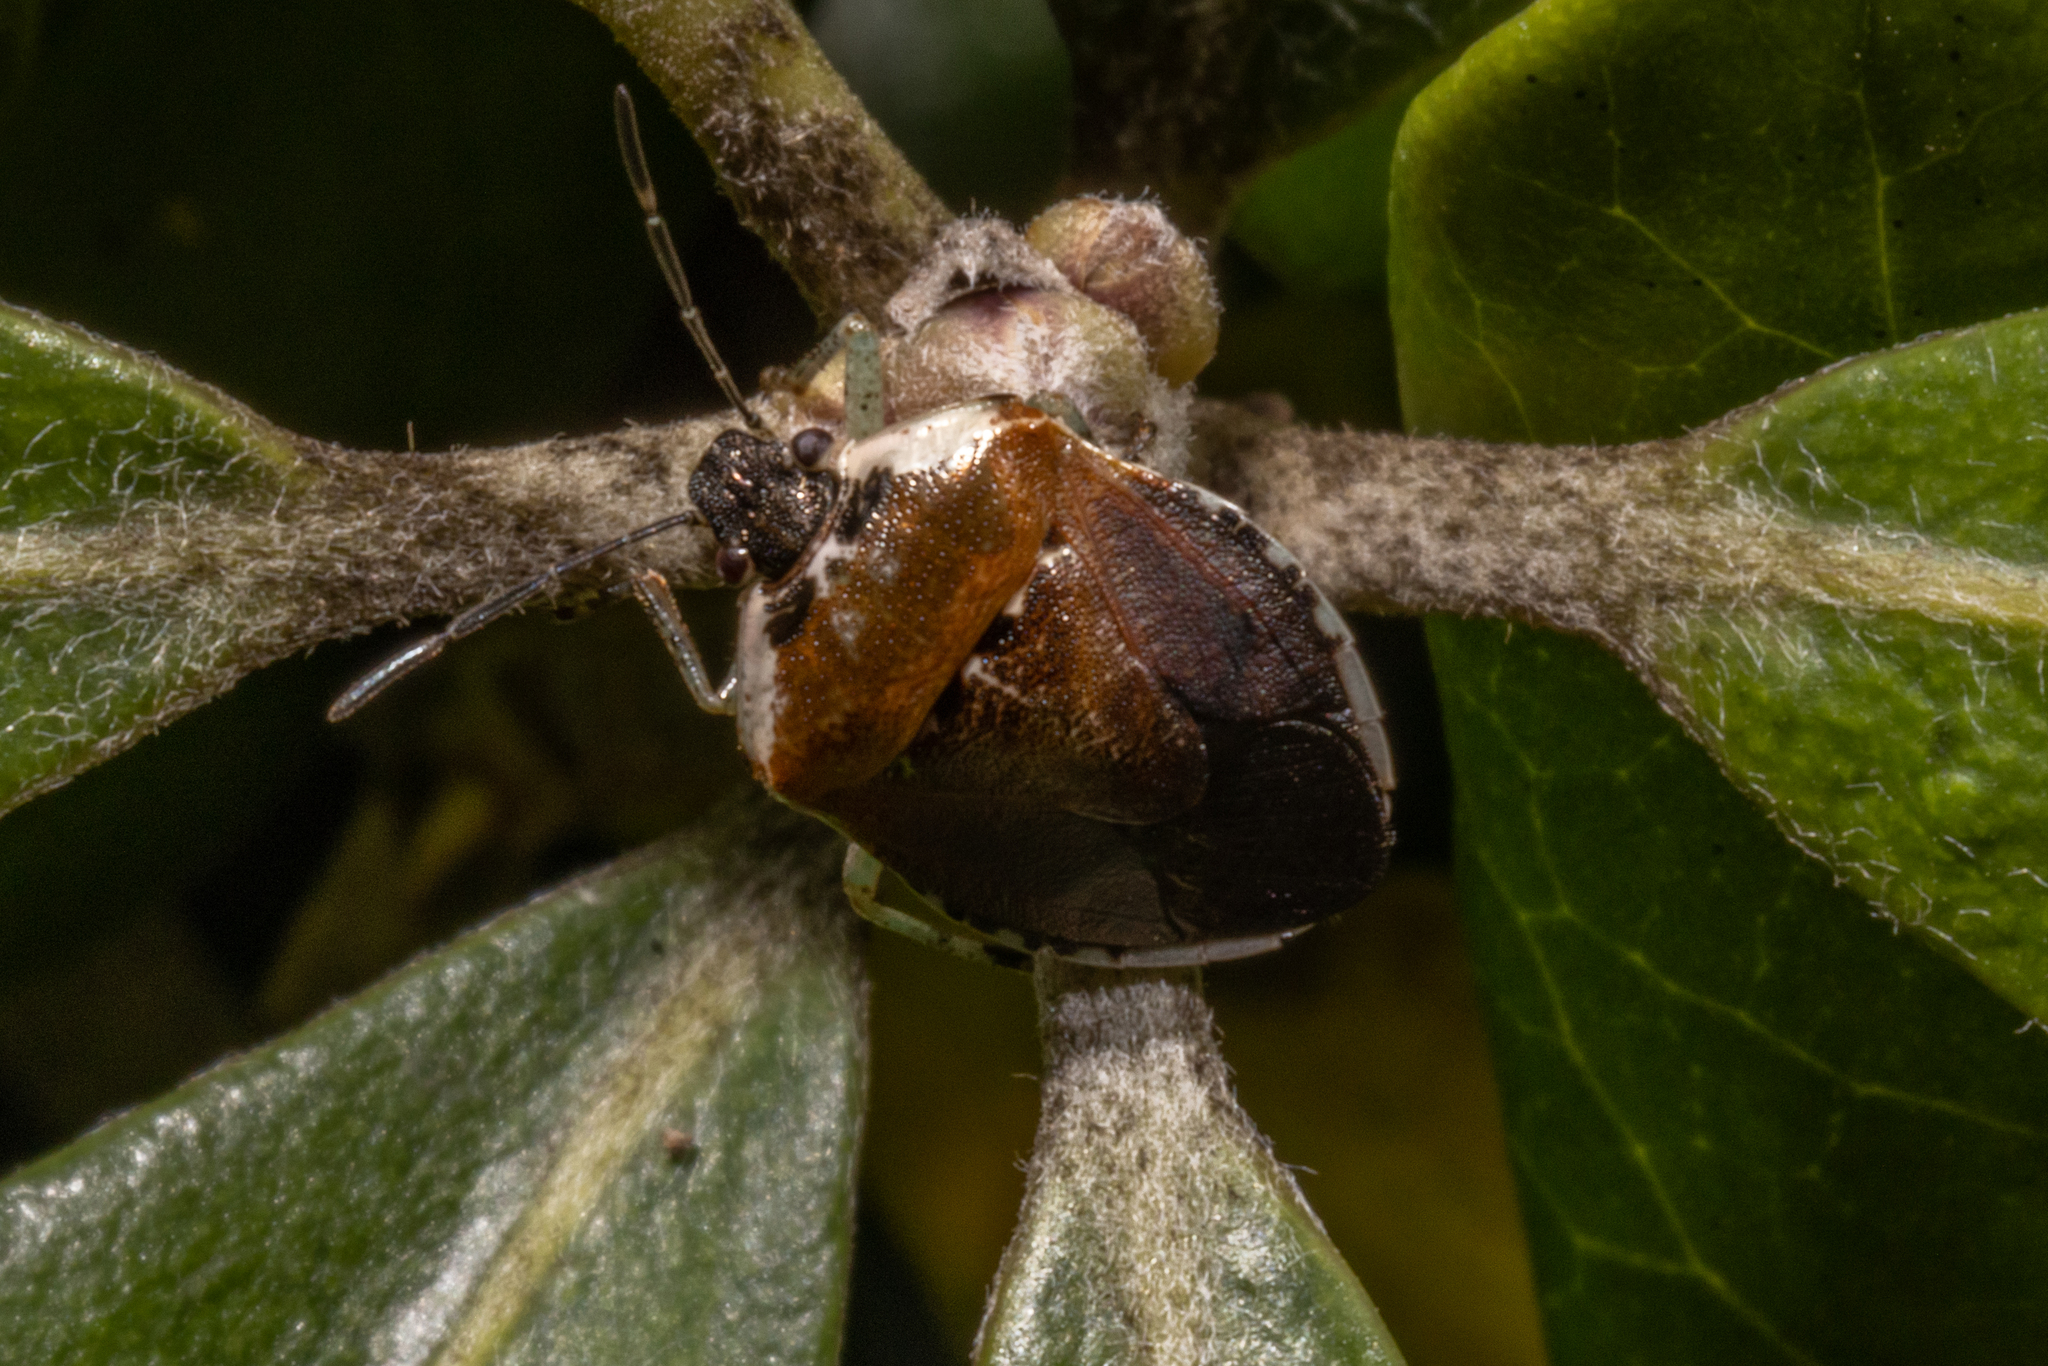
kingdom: Animalia
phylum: Arthropoda
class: Insecta
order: Hemiptera
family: Pentatomidae
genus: Monteithiella
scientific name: Monteithiella
